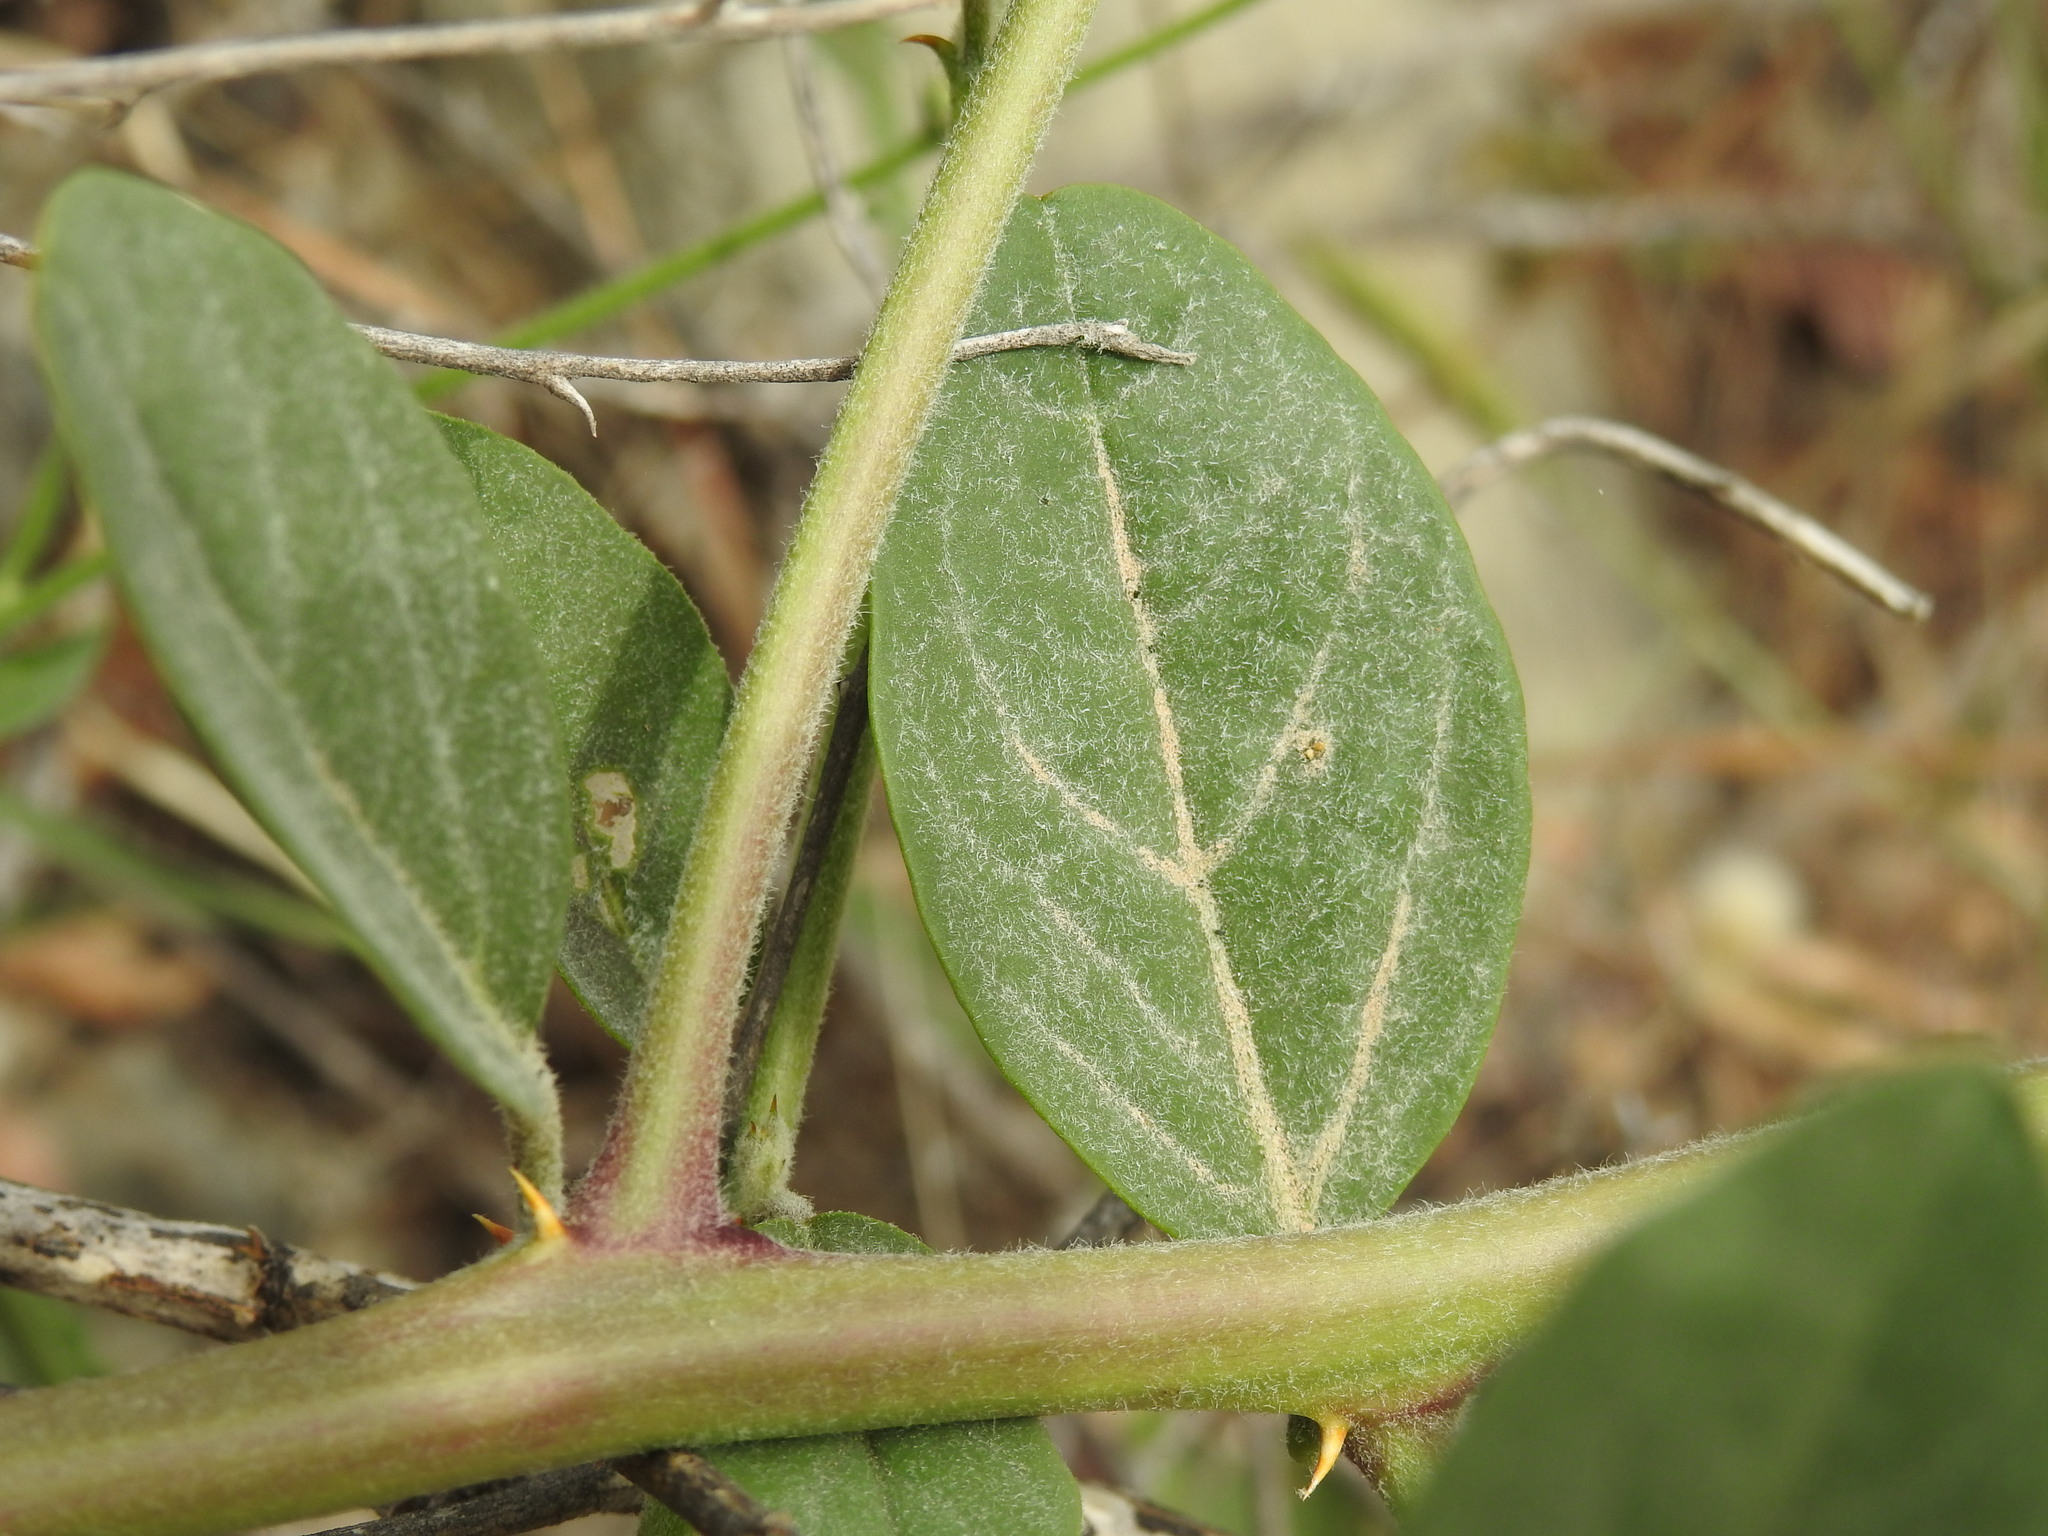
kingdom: Plantae
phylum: Tracheophyta
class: Magnoliopsida
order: Brassicales
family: Capparaceae
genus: Capparis
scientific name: Capparis spinosa
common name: Caper
